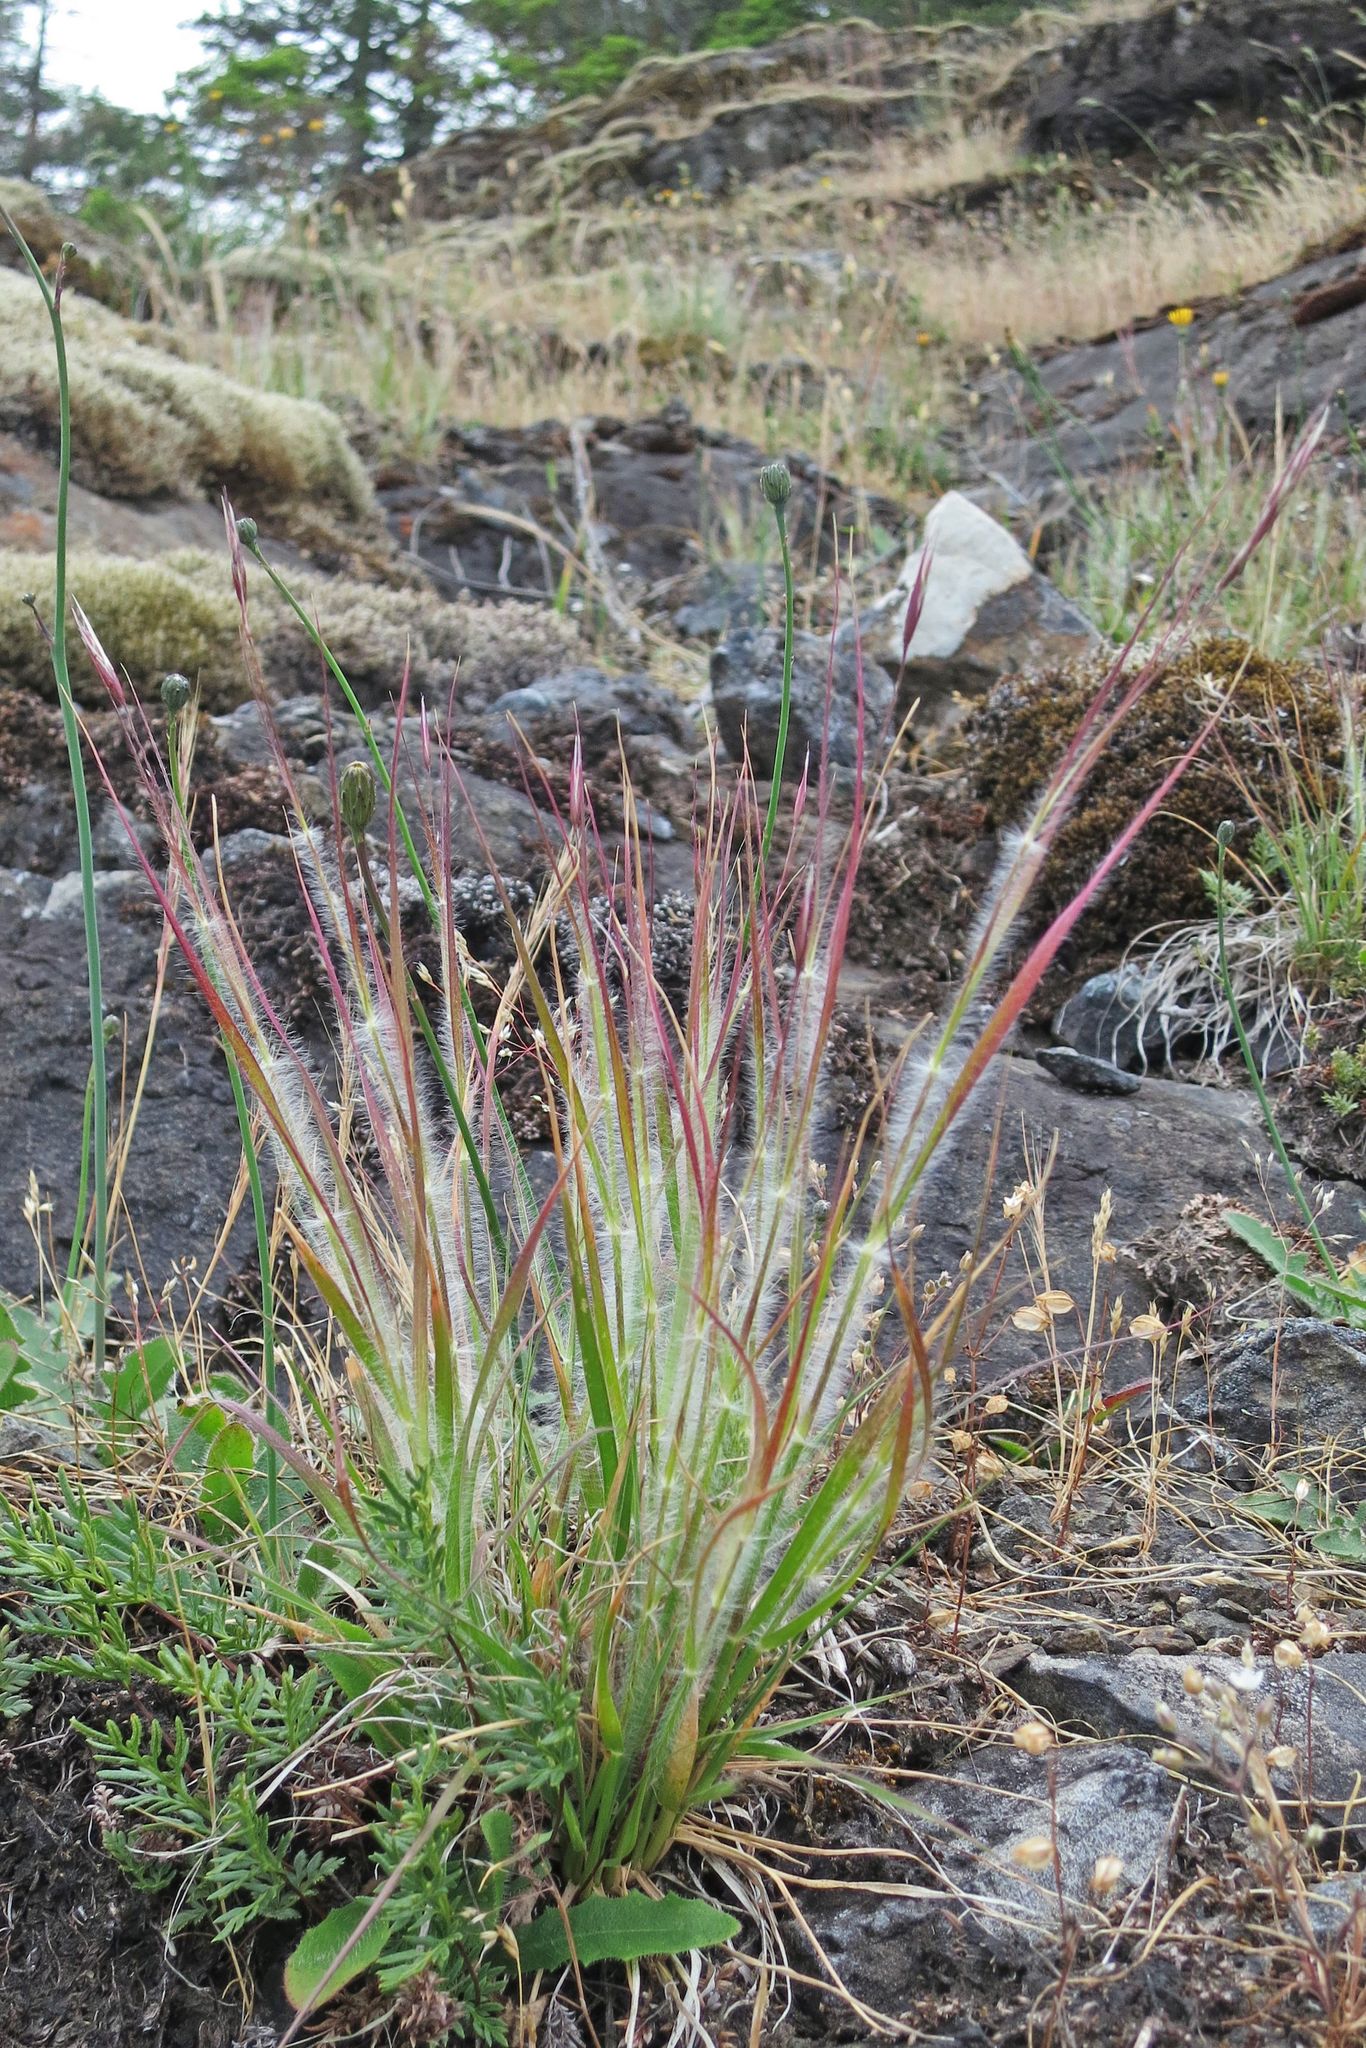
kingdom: Plantae
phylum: Tracheophyta
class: Liliopsida
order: Poales
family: Poaceae
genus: Danthonia
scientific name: Danthonia unispicata
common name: Few-flowered oatgrass
